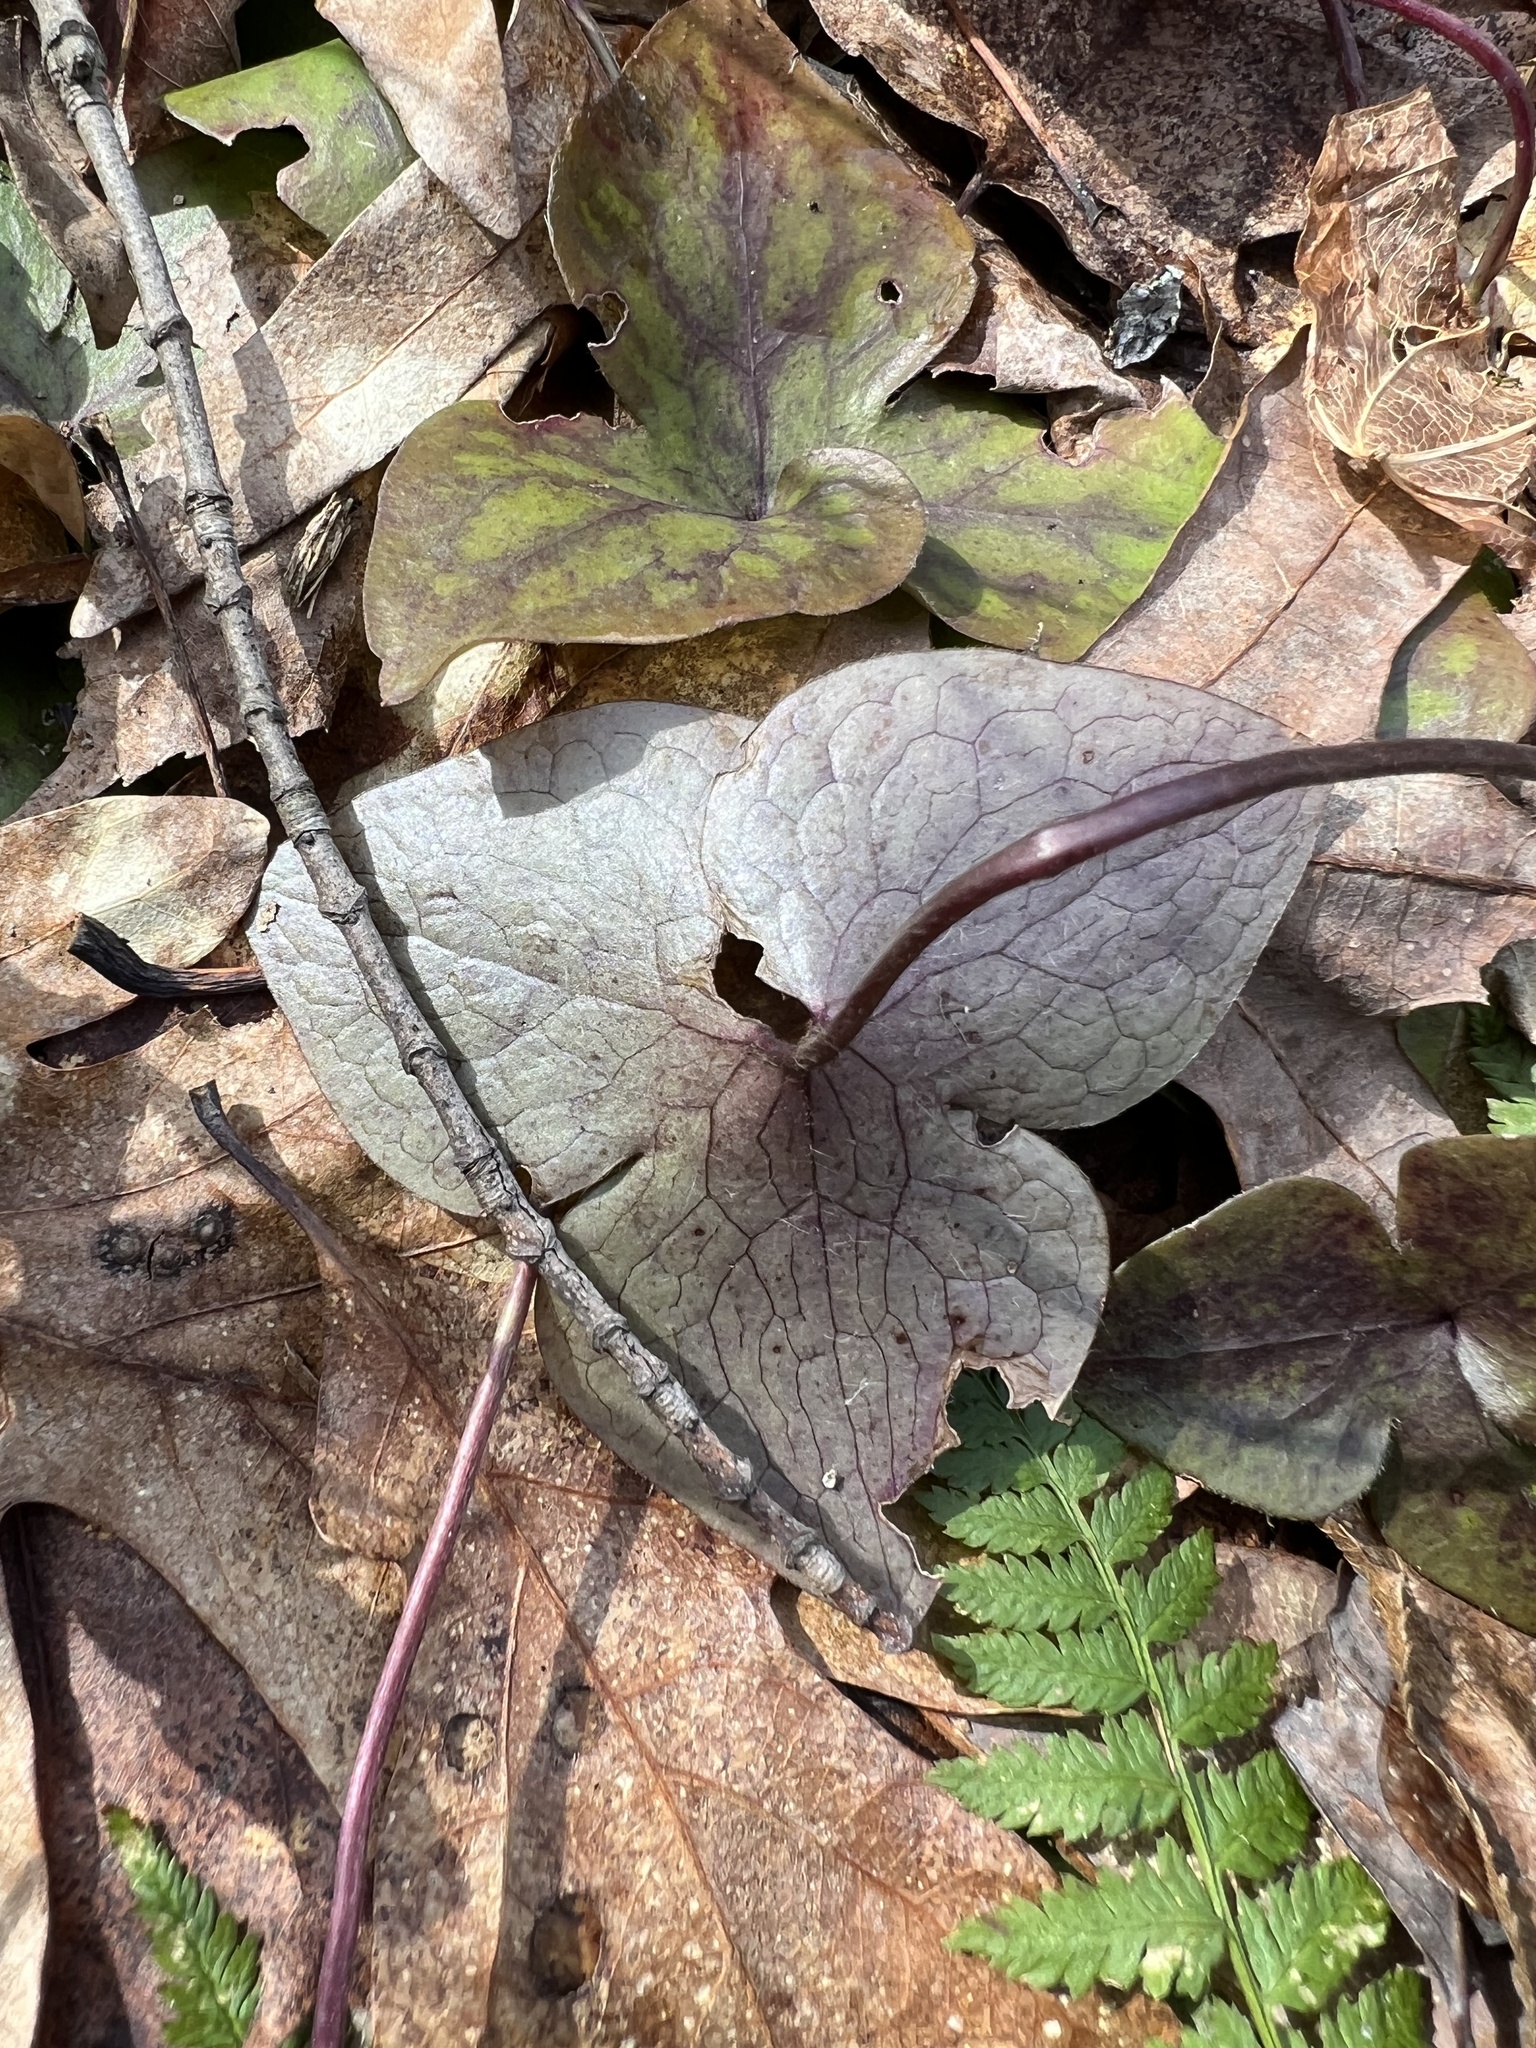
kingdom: Plantae
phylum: Tracheophyta
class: Magnoliopsida
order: Ranunculales
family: Ranunculaceae
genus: Hepatica
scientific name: Hepatica acutiloba
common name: Sharp-lobed hepatica
